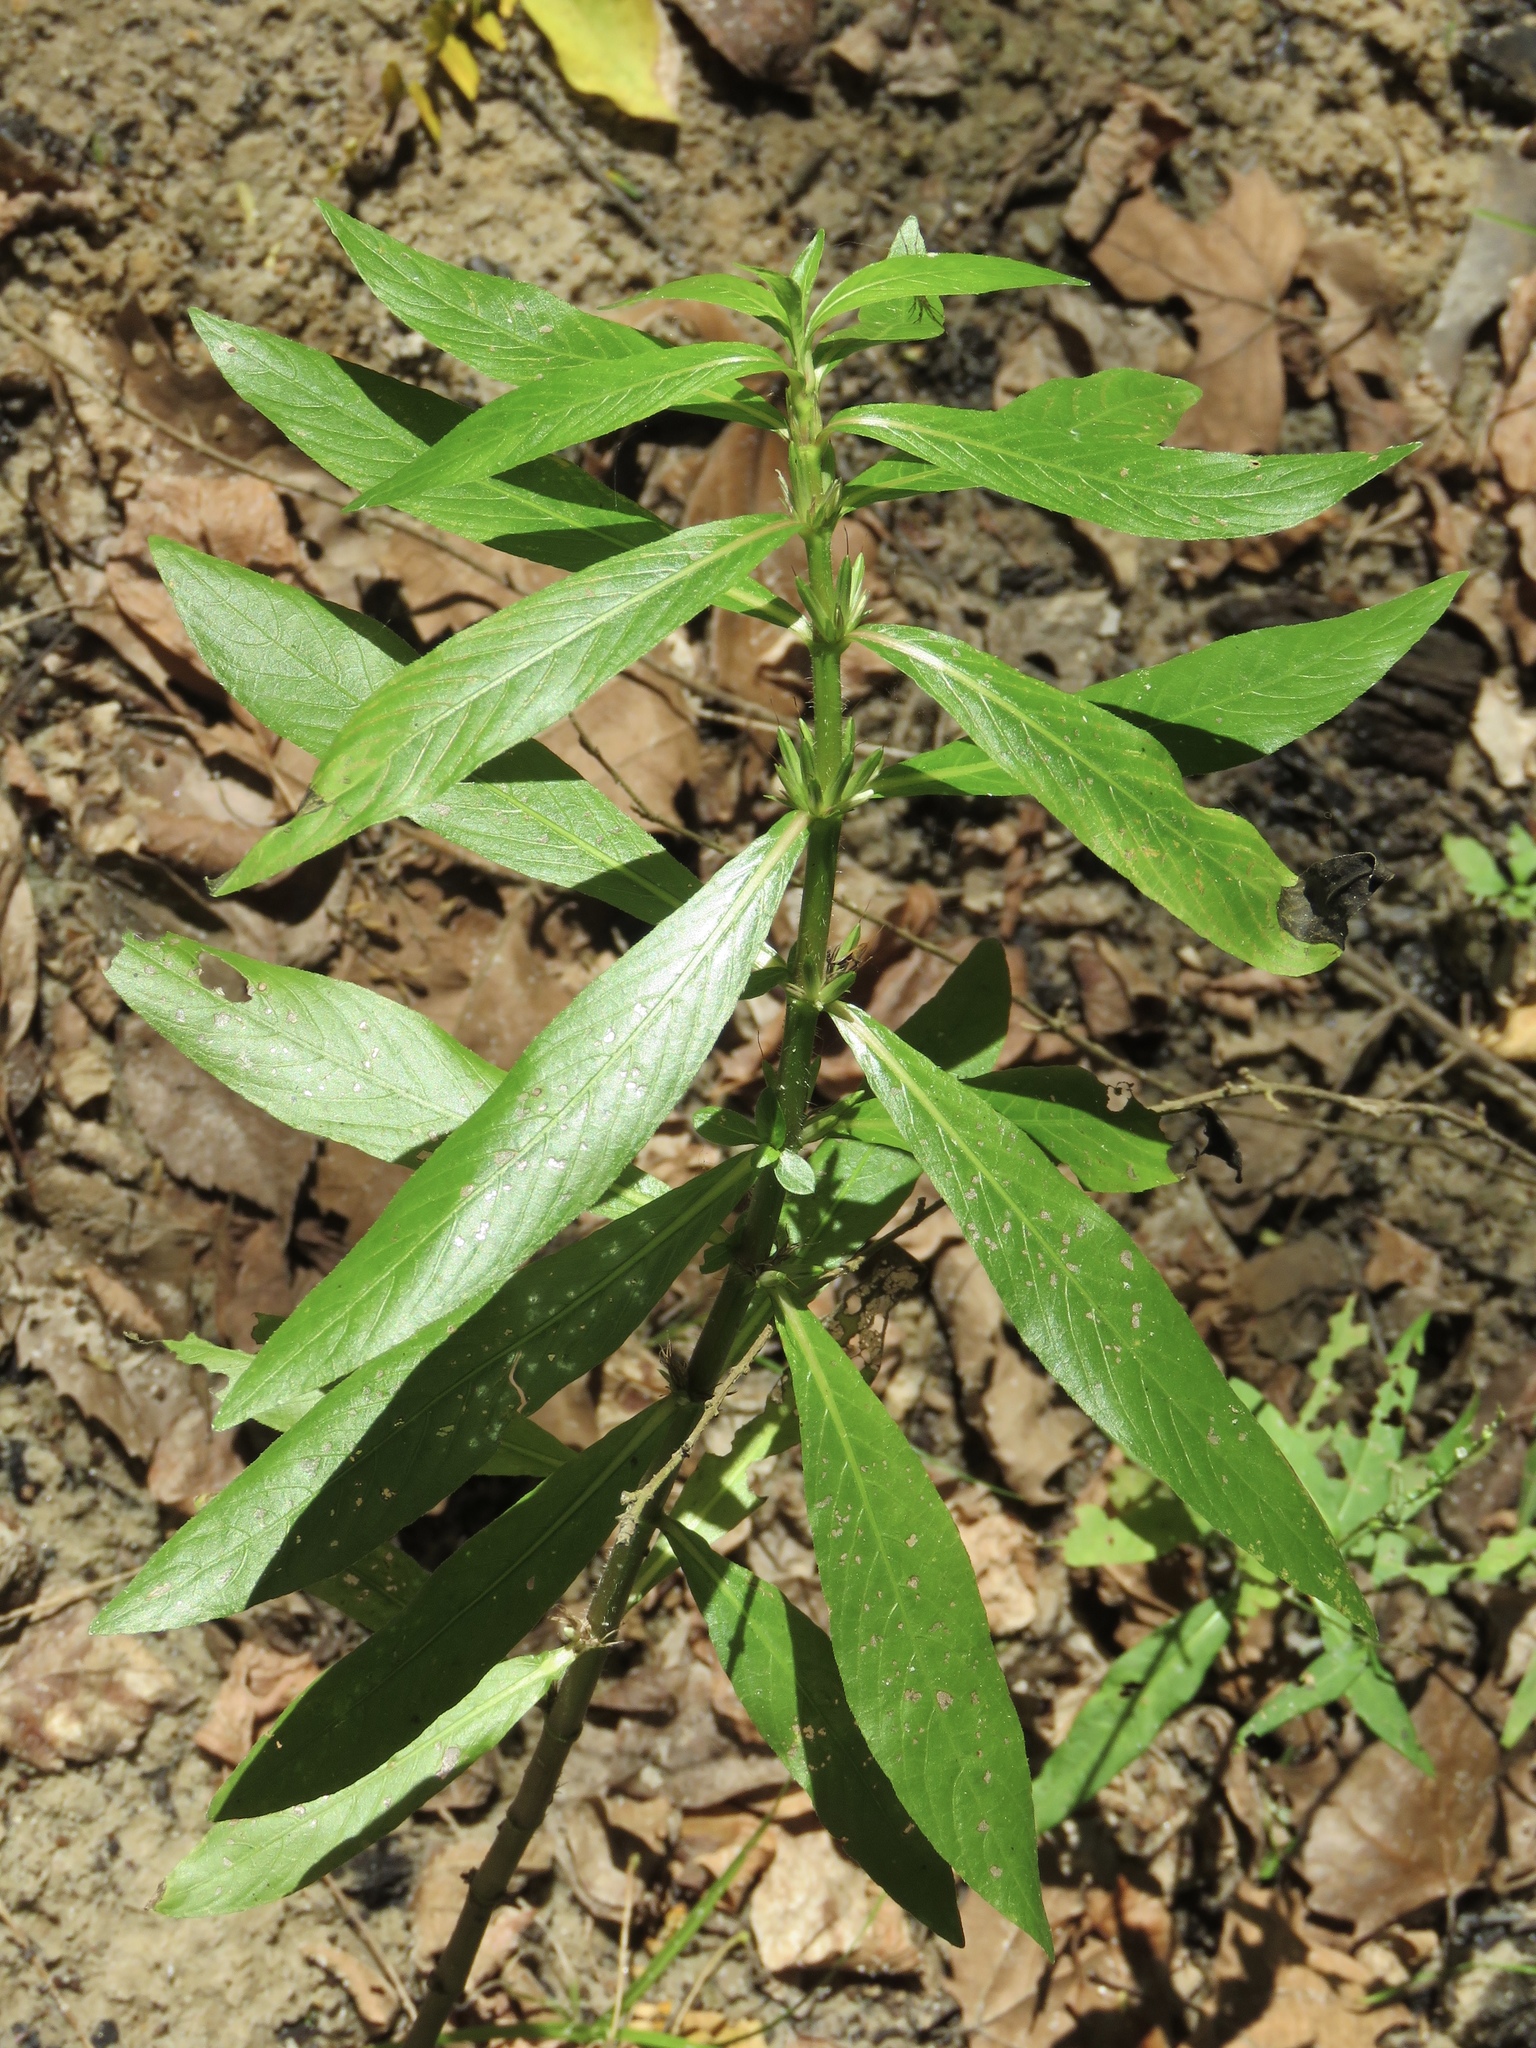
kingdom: Plantae
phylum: Tracheophyta
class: Magnoliopsida
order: Lamiales
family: Acanthaceae
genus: Hygrophila
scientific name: Hygrophila costata
